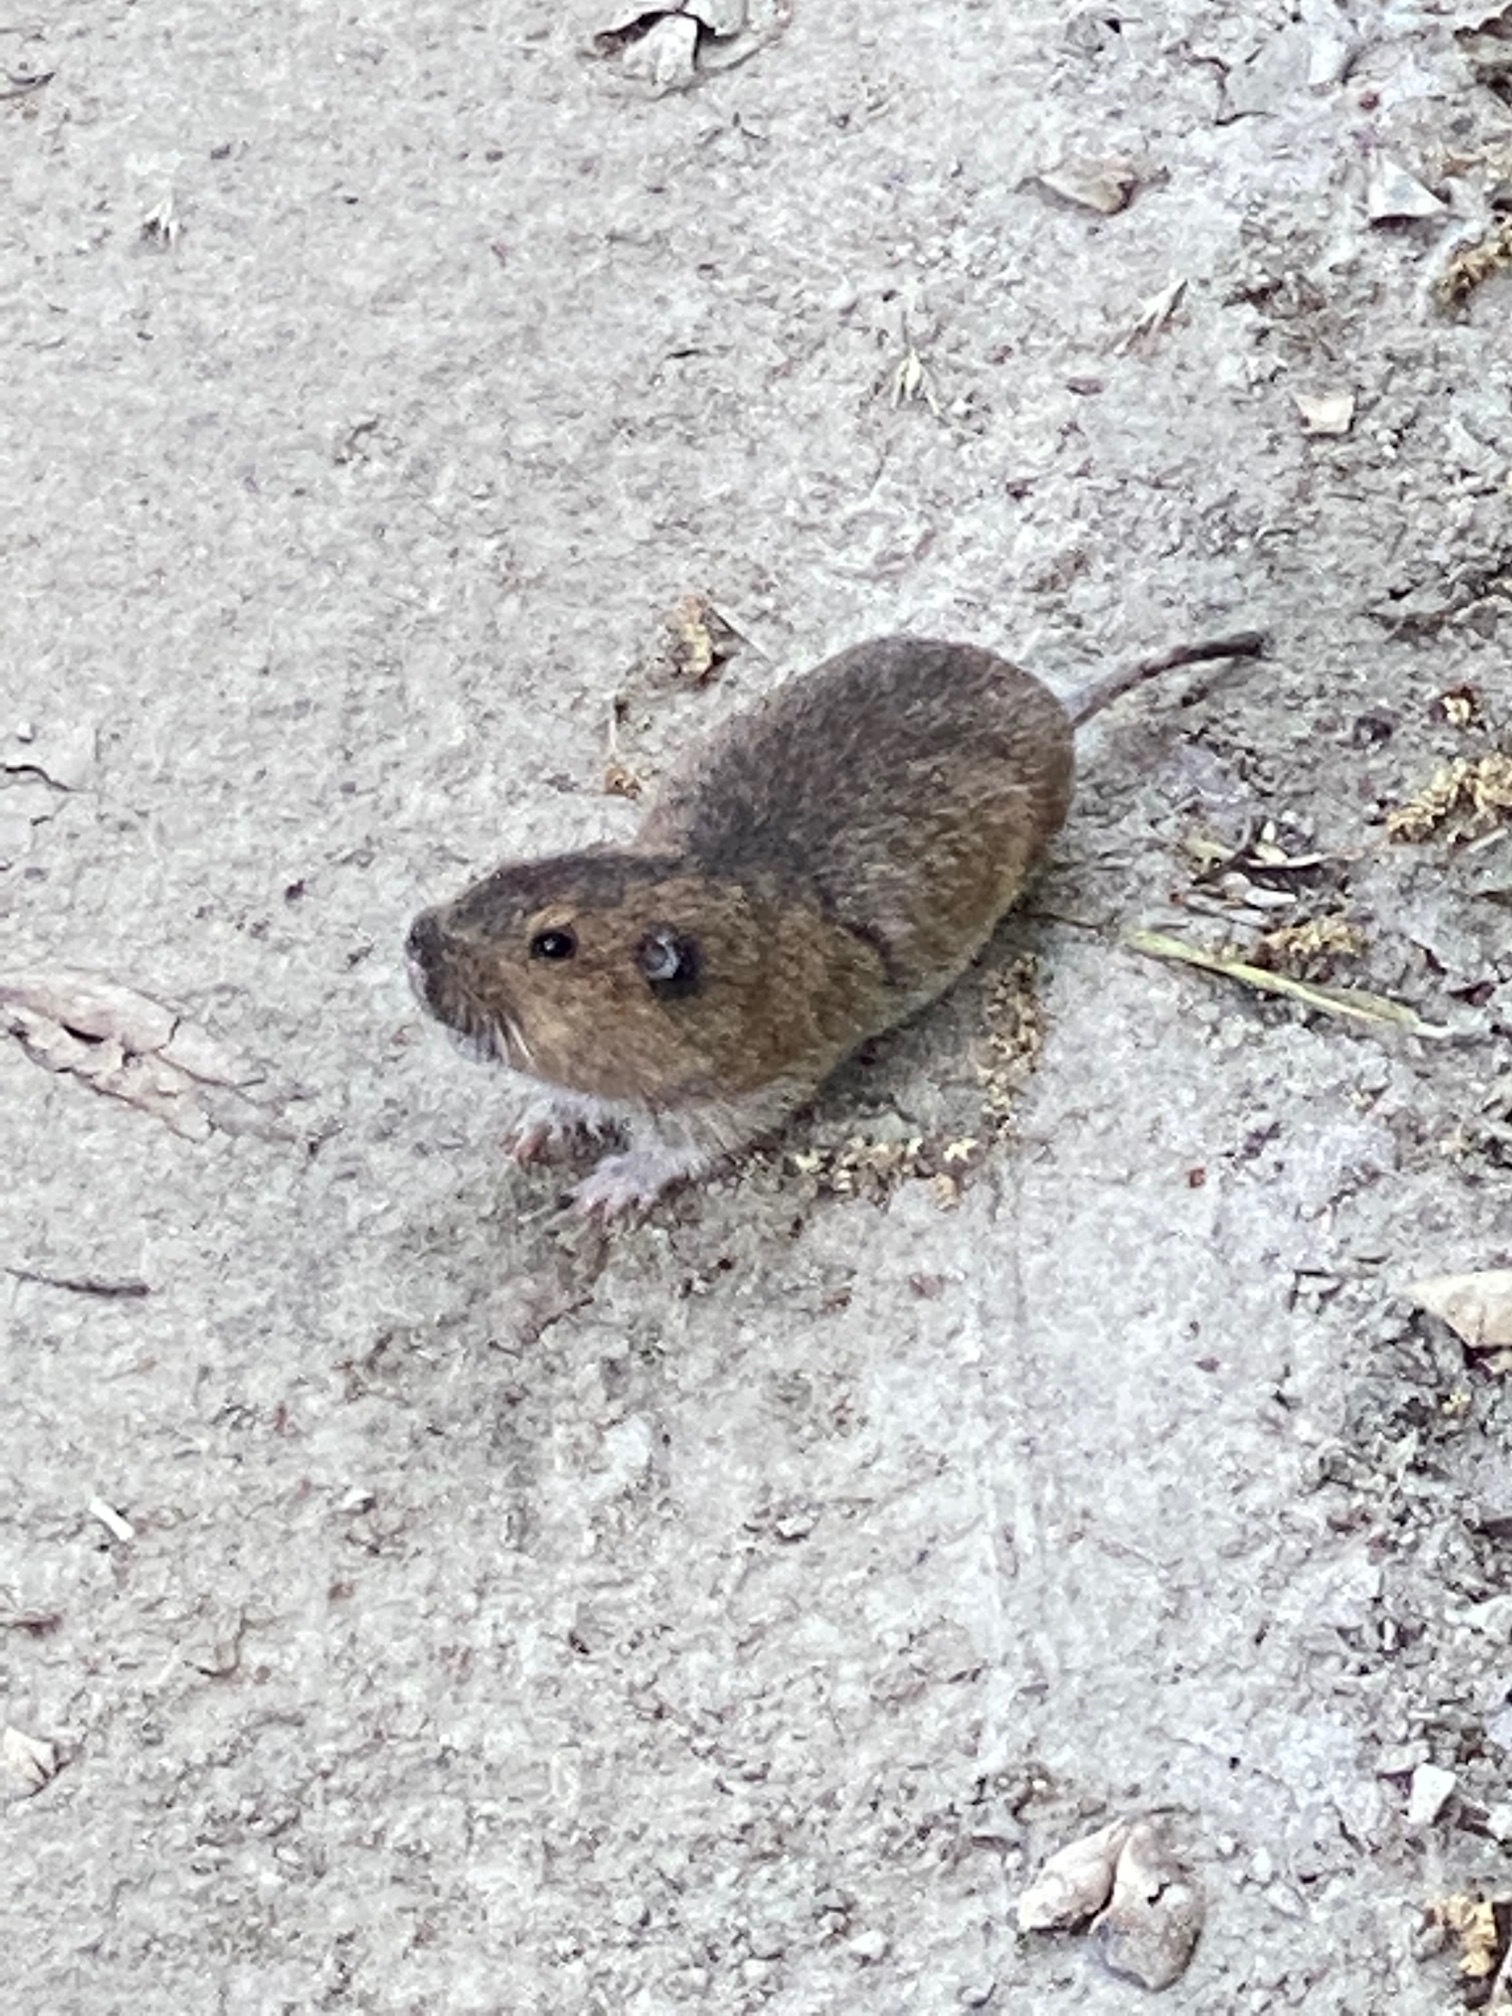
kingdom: Animalia
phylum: Chordata
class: Mammalia
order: Rodentia
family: Geomyidae
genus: Thomomys
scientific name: Thomomys bottae
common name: Botta's pocket gopher
